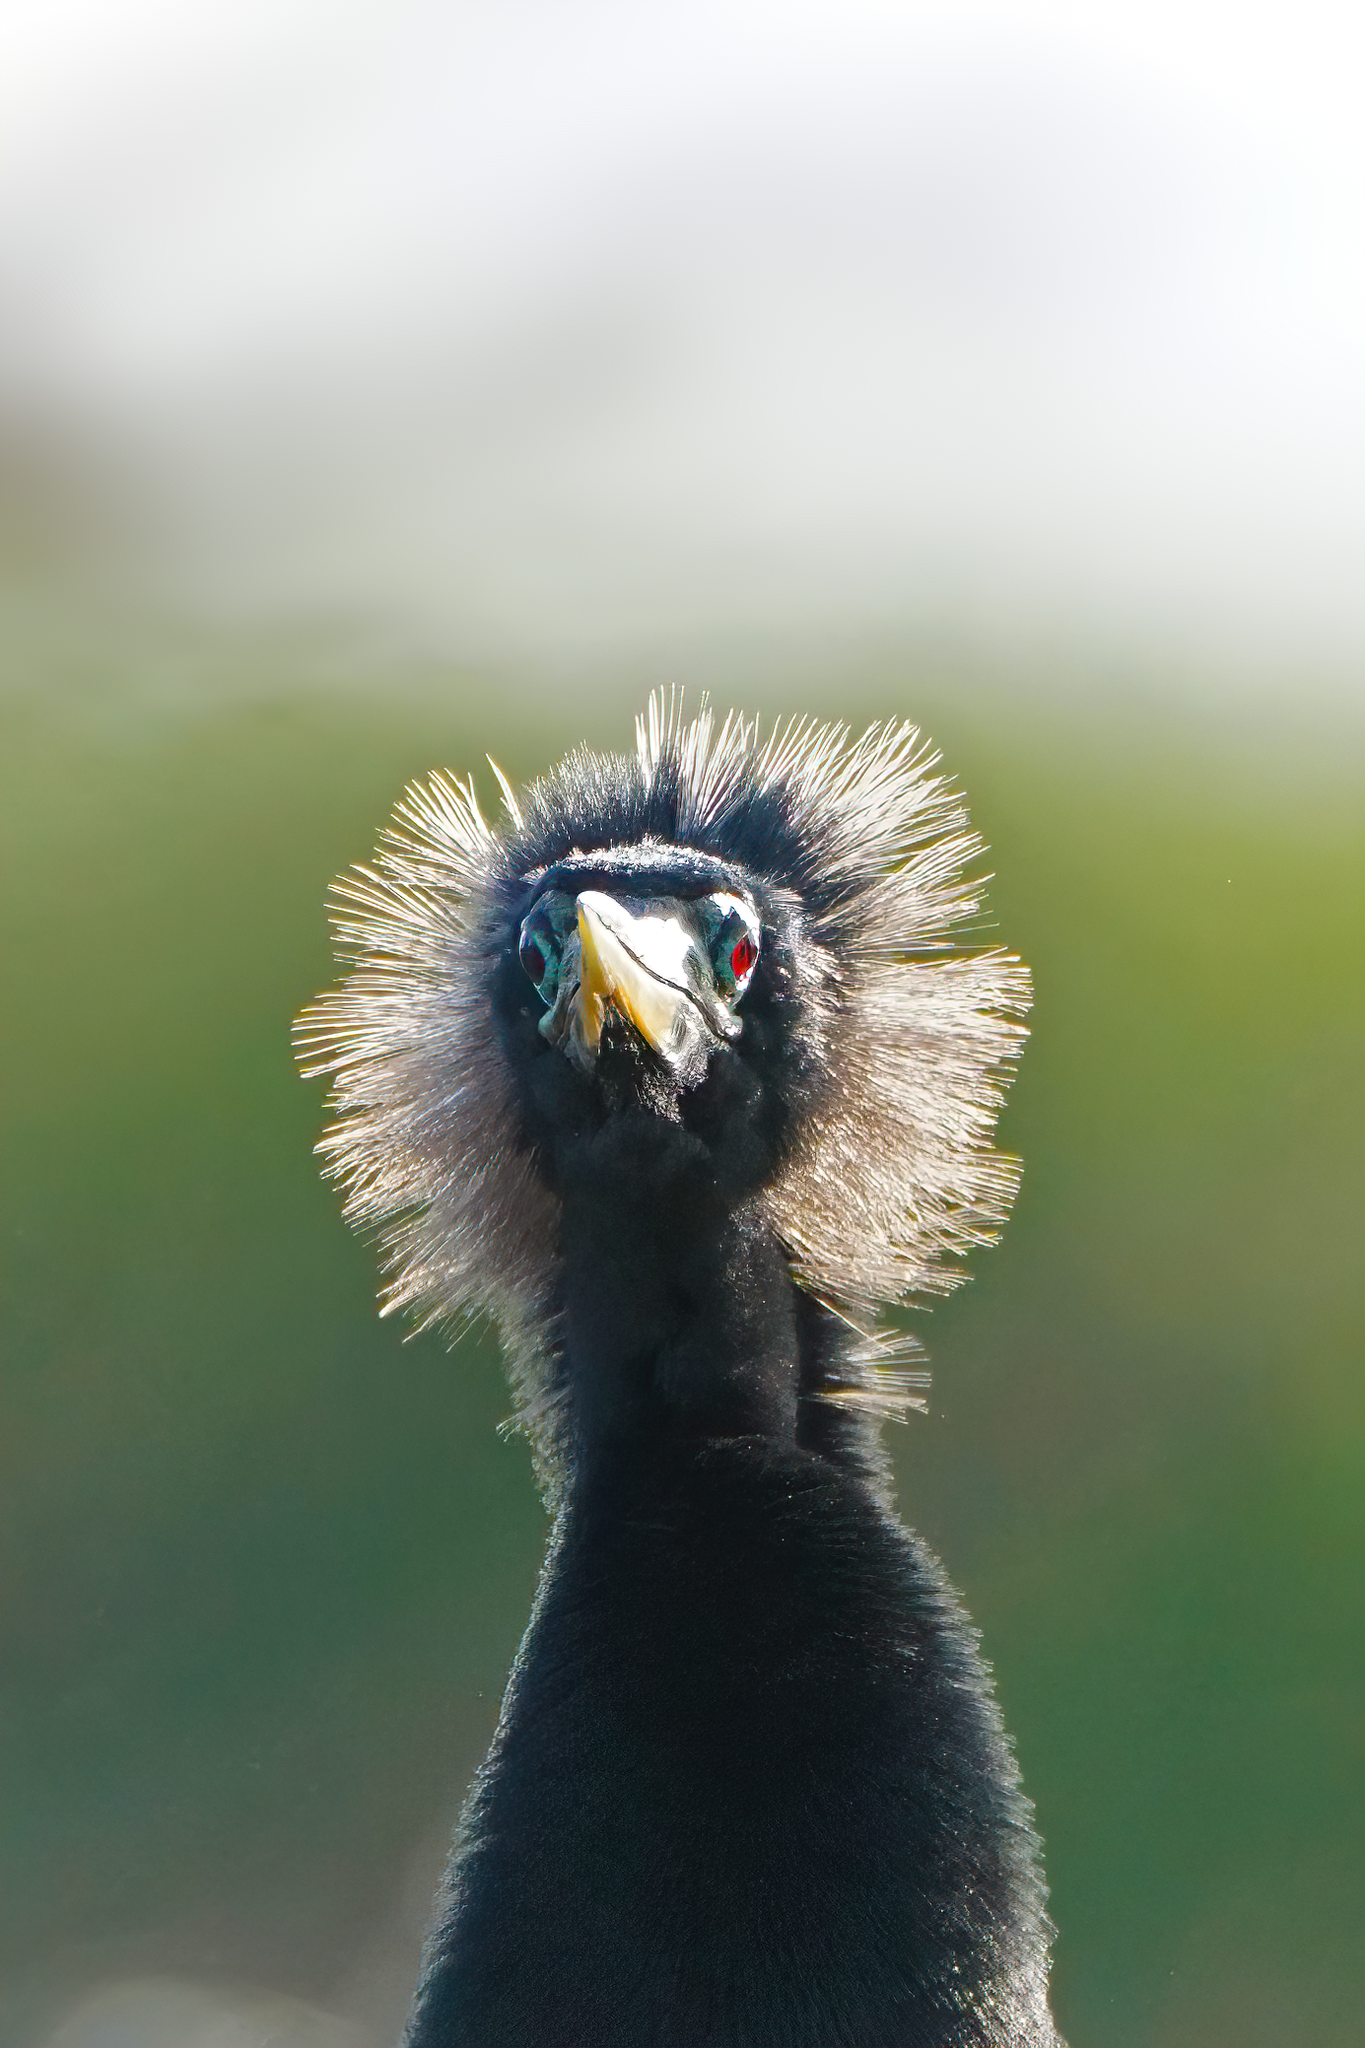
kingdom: Animalia
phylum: Chordata
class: Aves
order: Suliformes
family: Anhingidae
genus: Anhinga
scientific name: Anhinga anhinga
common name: Anhinga
